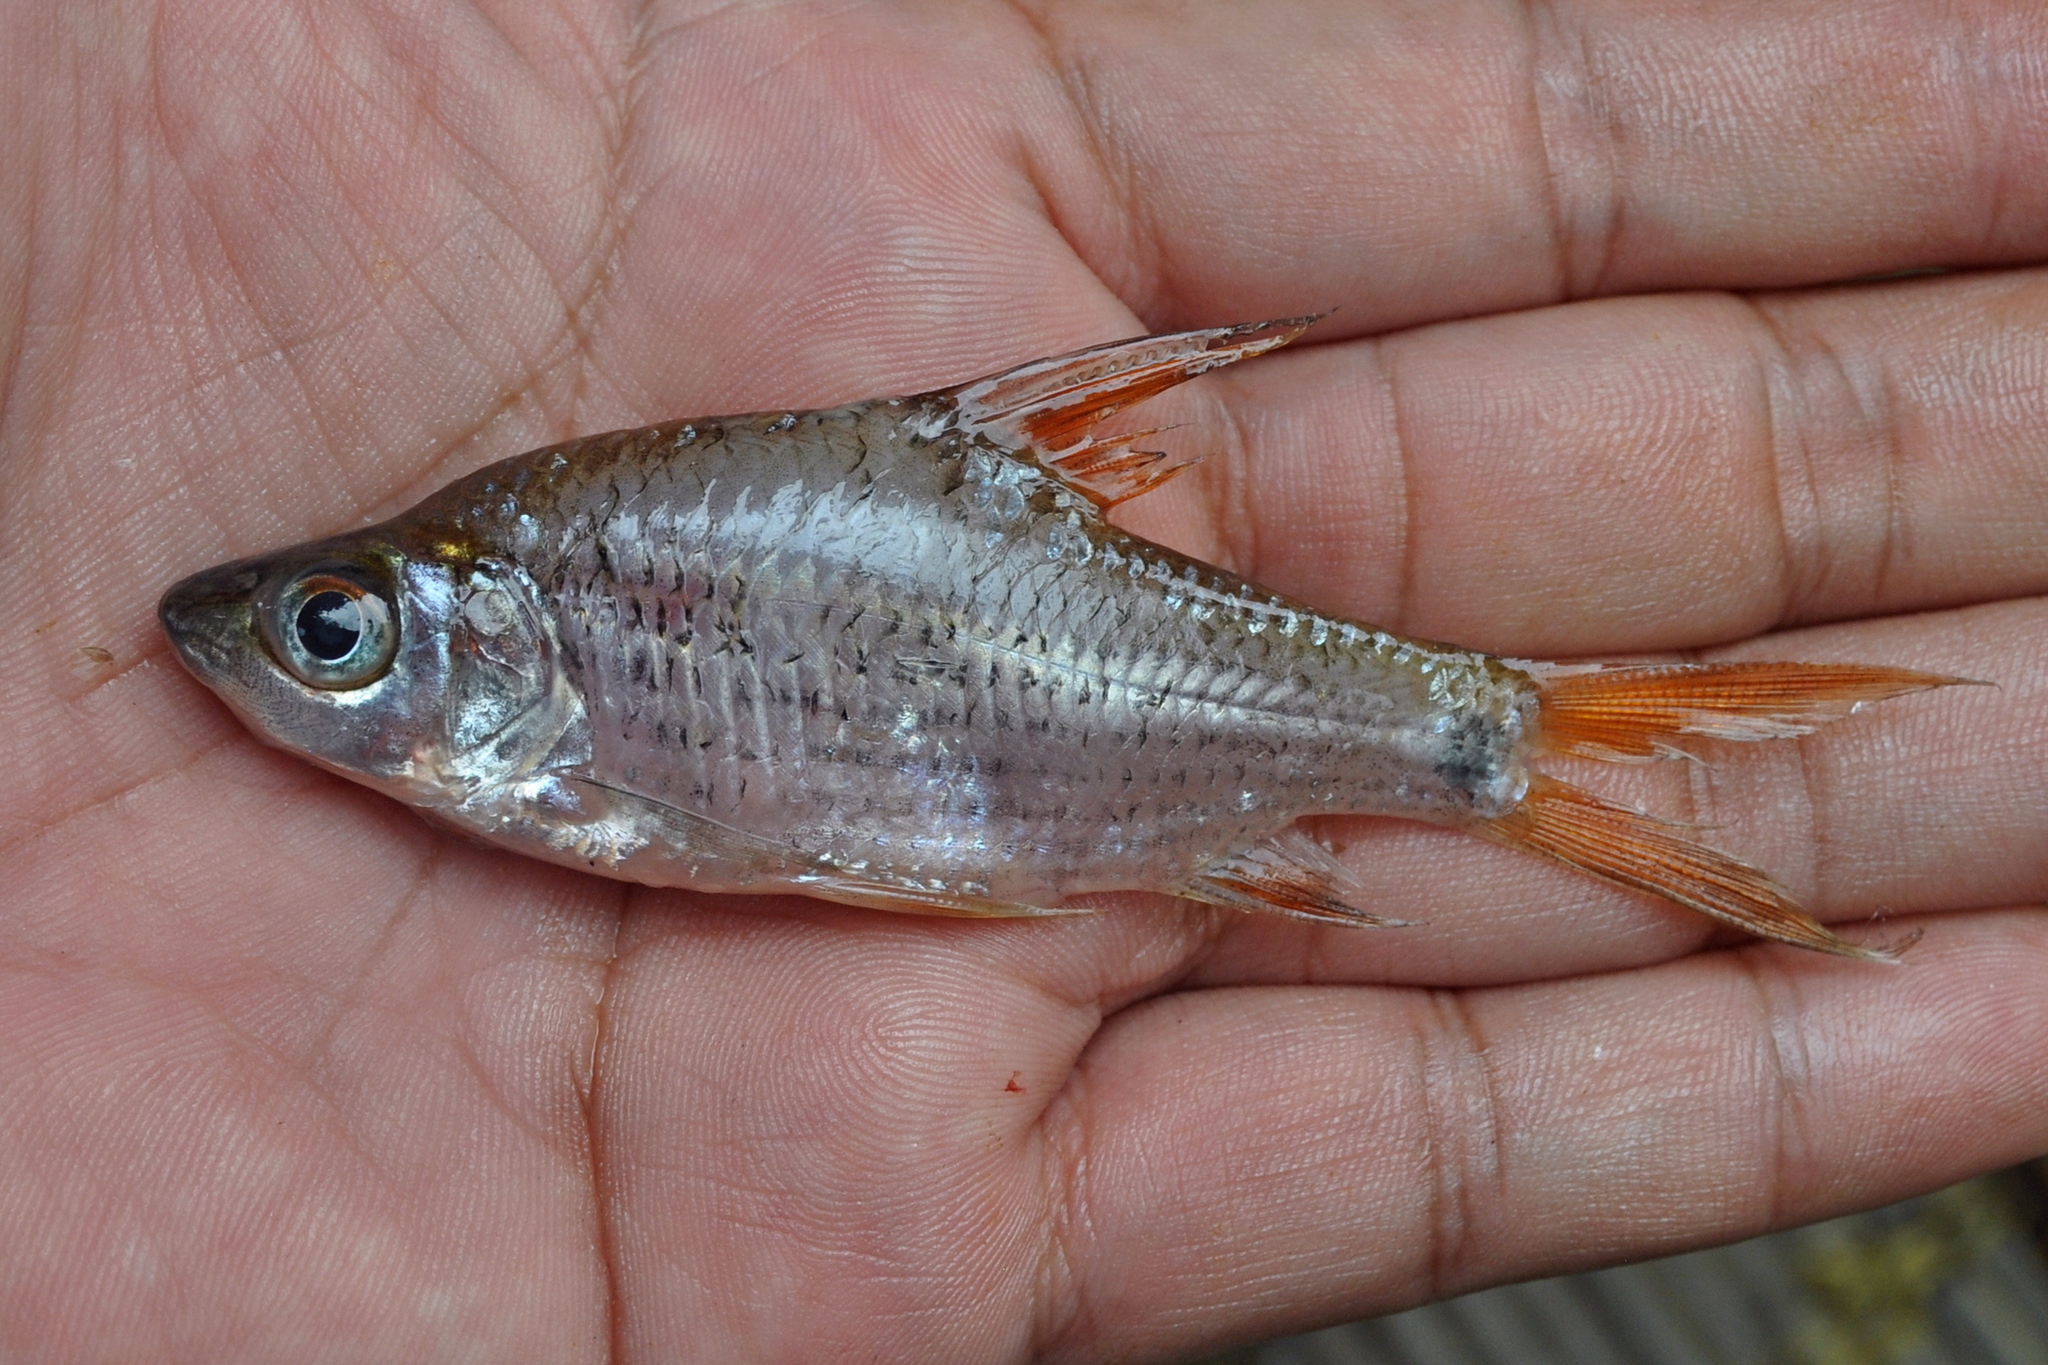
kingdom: Animalia
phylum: Chordata
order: Cypriniformes
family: Cyprinidae
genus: Cyclocheilichthys
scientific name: Cyclocheilichthys apogon
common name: Beardless barb
